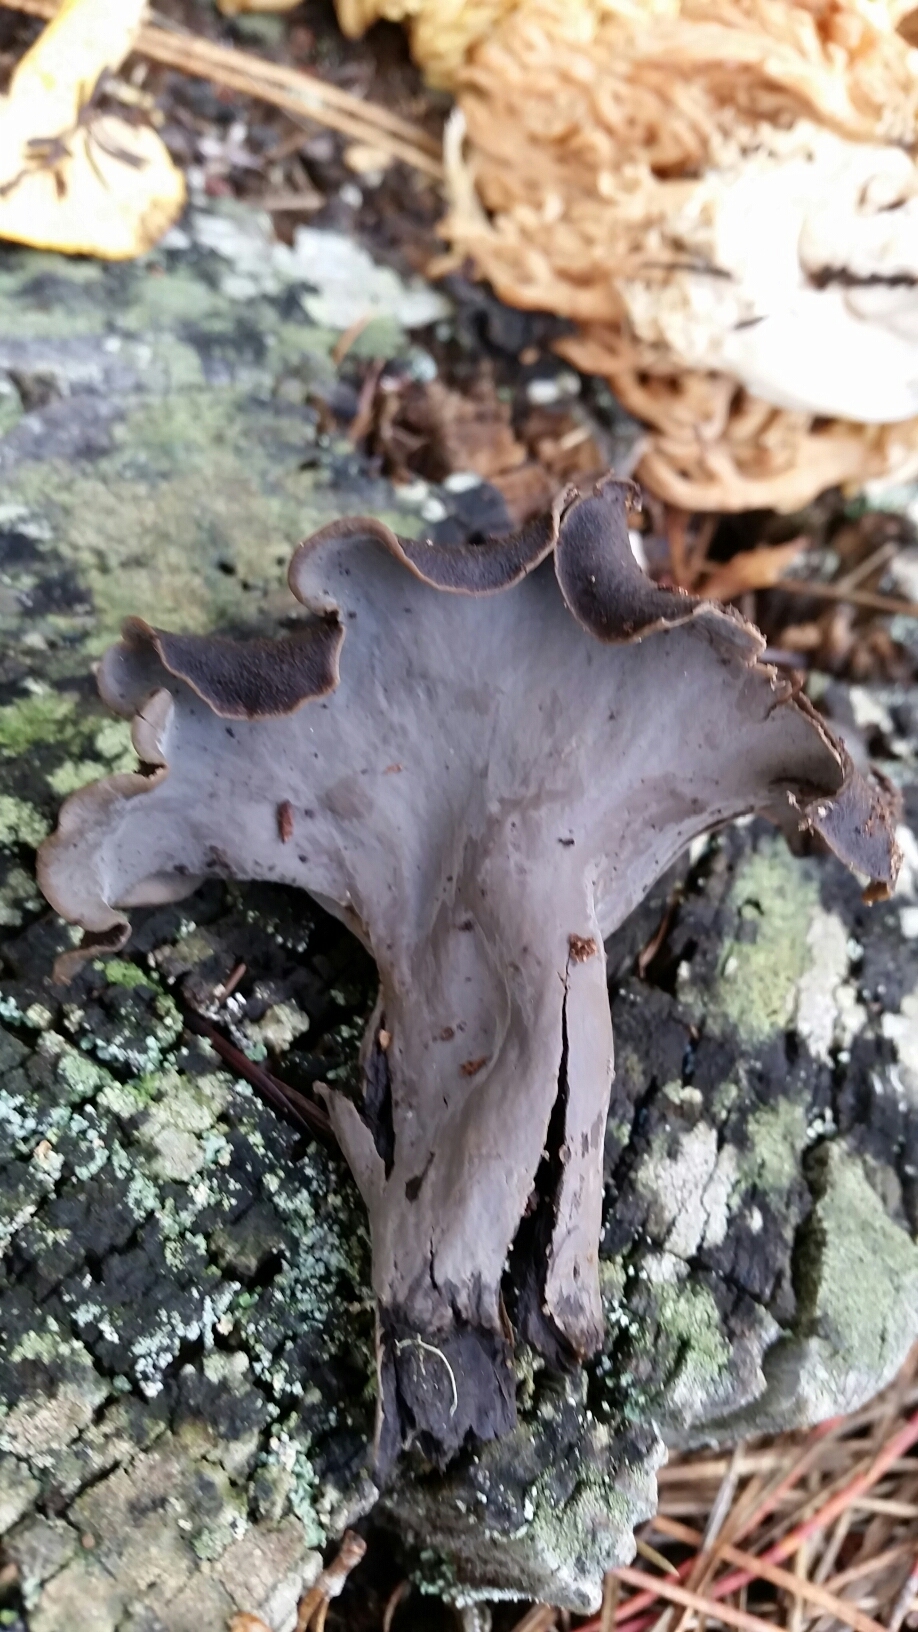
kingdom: Fungi
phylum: Basidiomycota
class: Agaricomycetes
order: Cantharellales
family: Hydnaceae
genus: Craterellus
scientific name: Craterellus calicornucopioides
